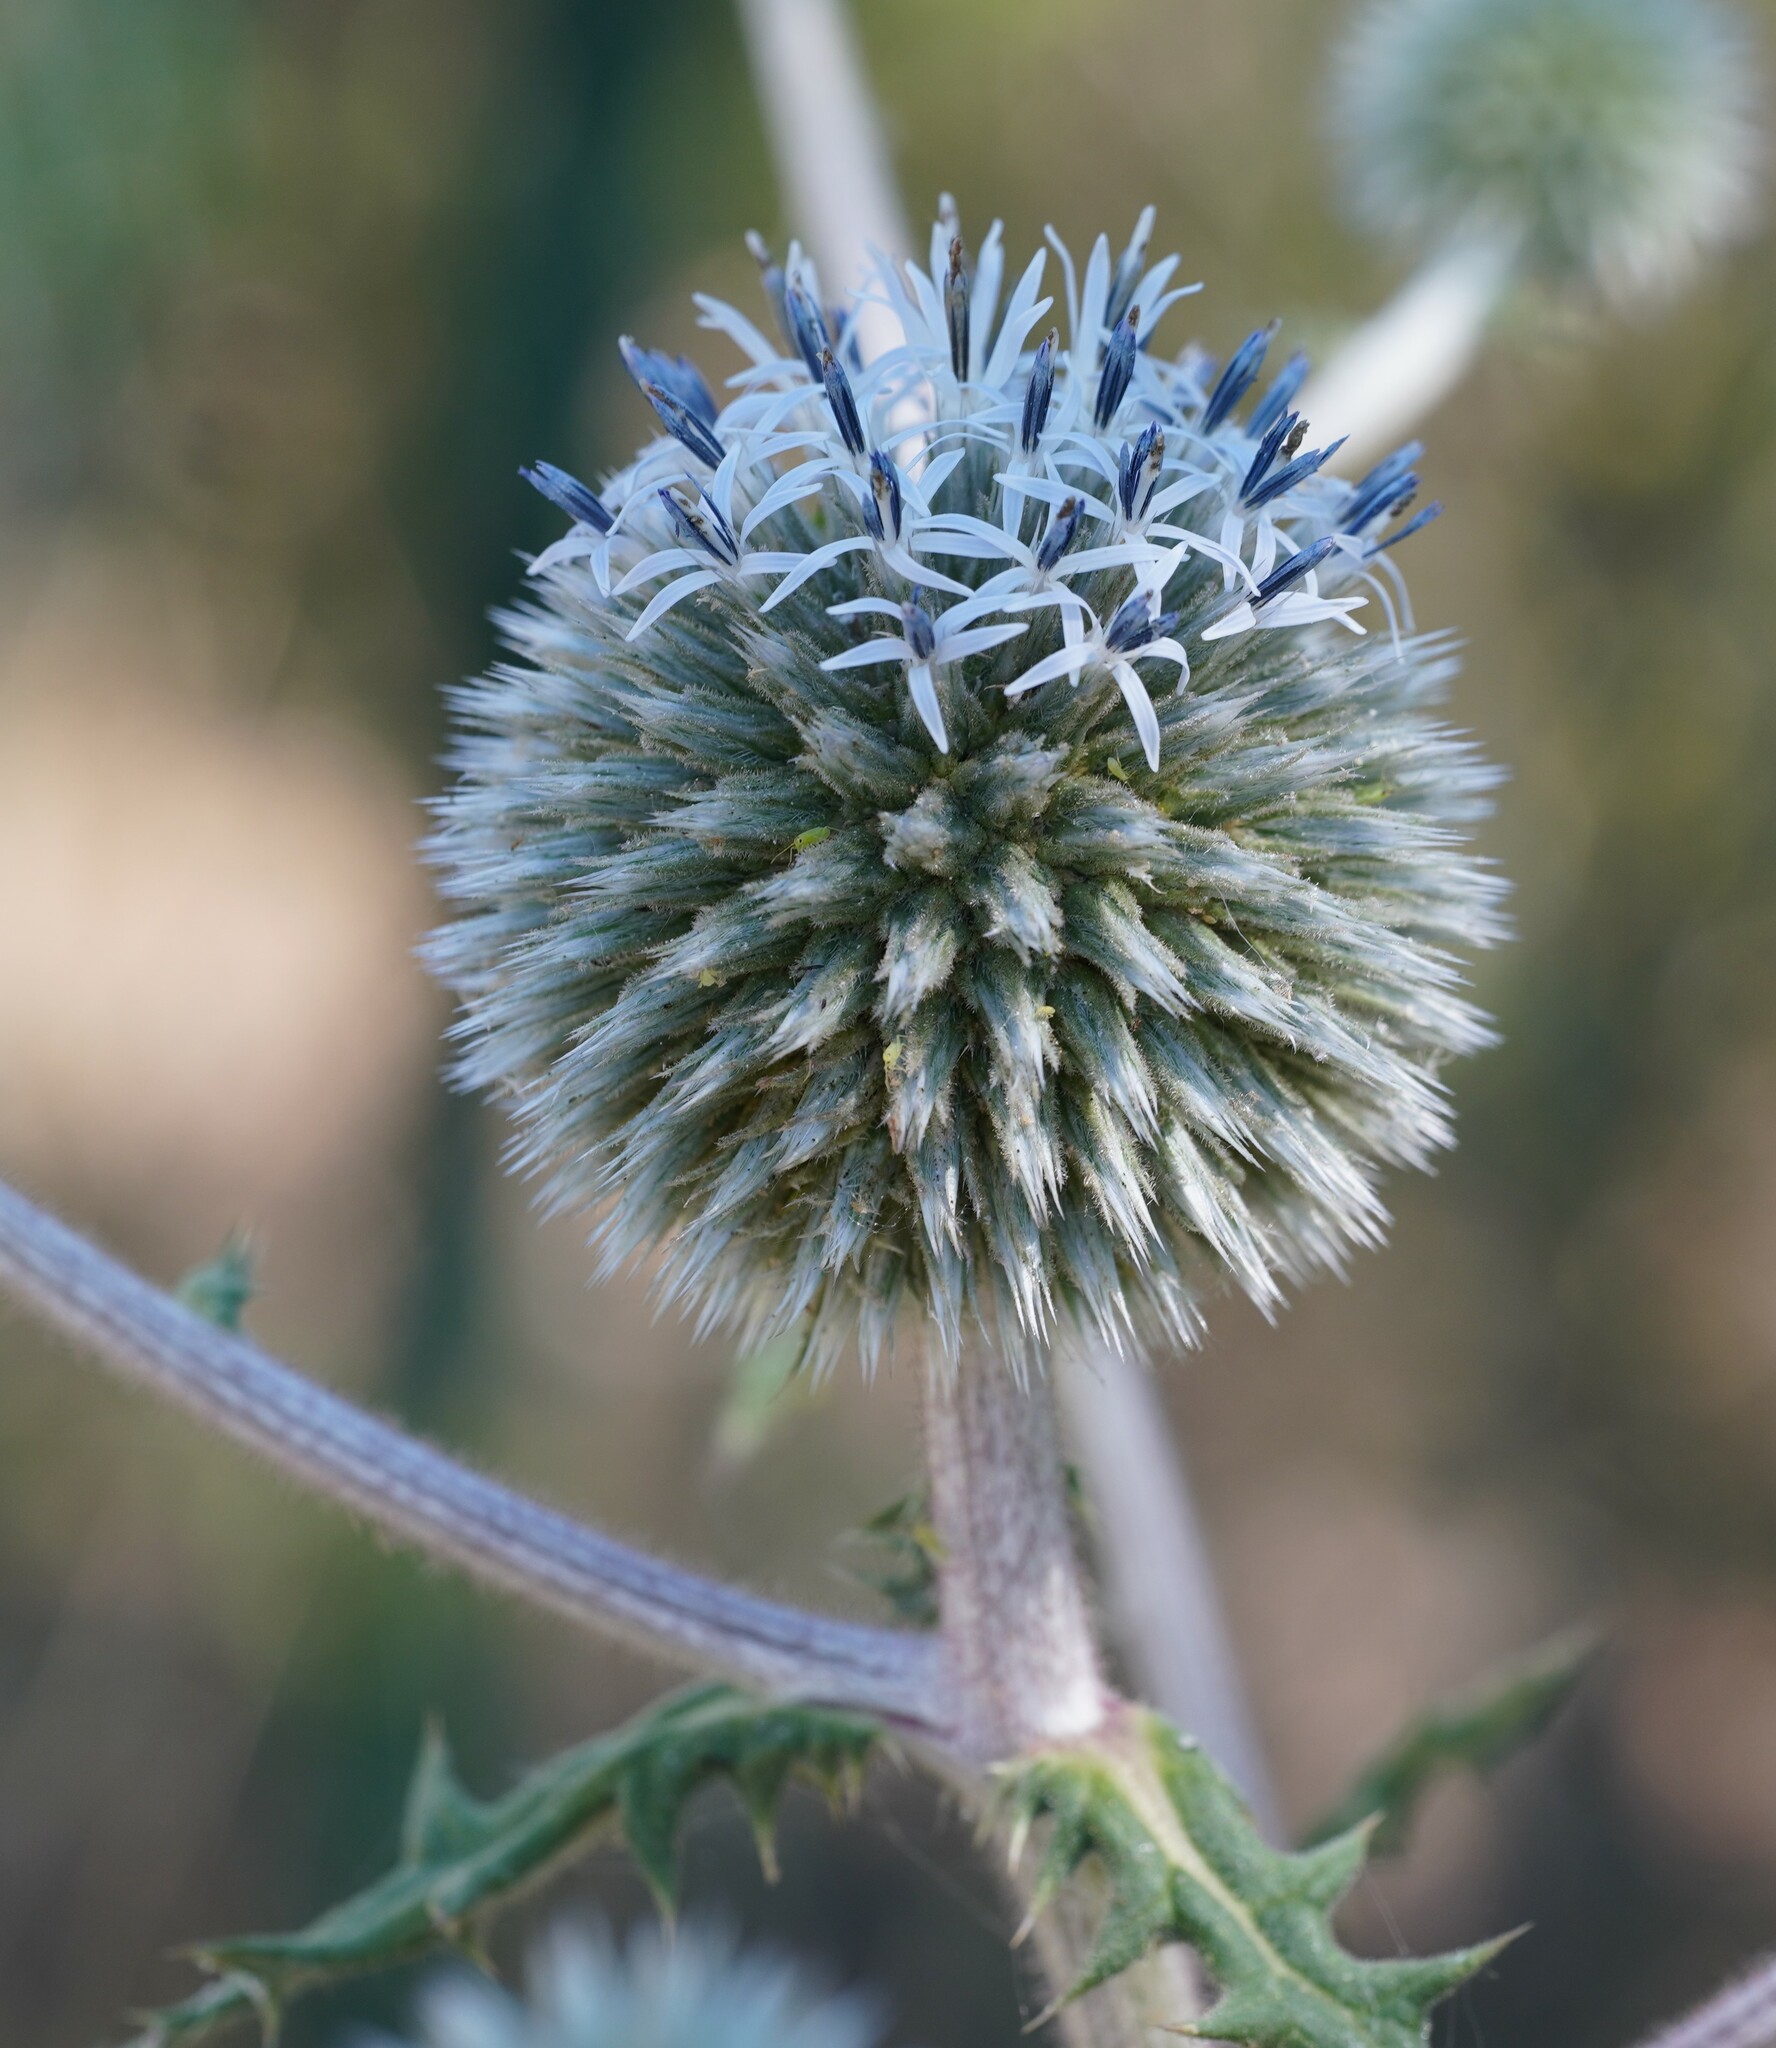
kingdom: Plantae
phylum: Tracheophyta
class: Magnoliopsida
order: Asterales
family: Asteraceae
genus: Echinops
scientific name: Echinops sphaerocephalus
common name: Glandular globe-thistle
